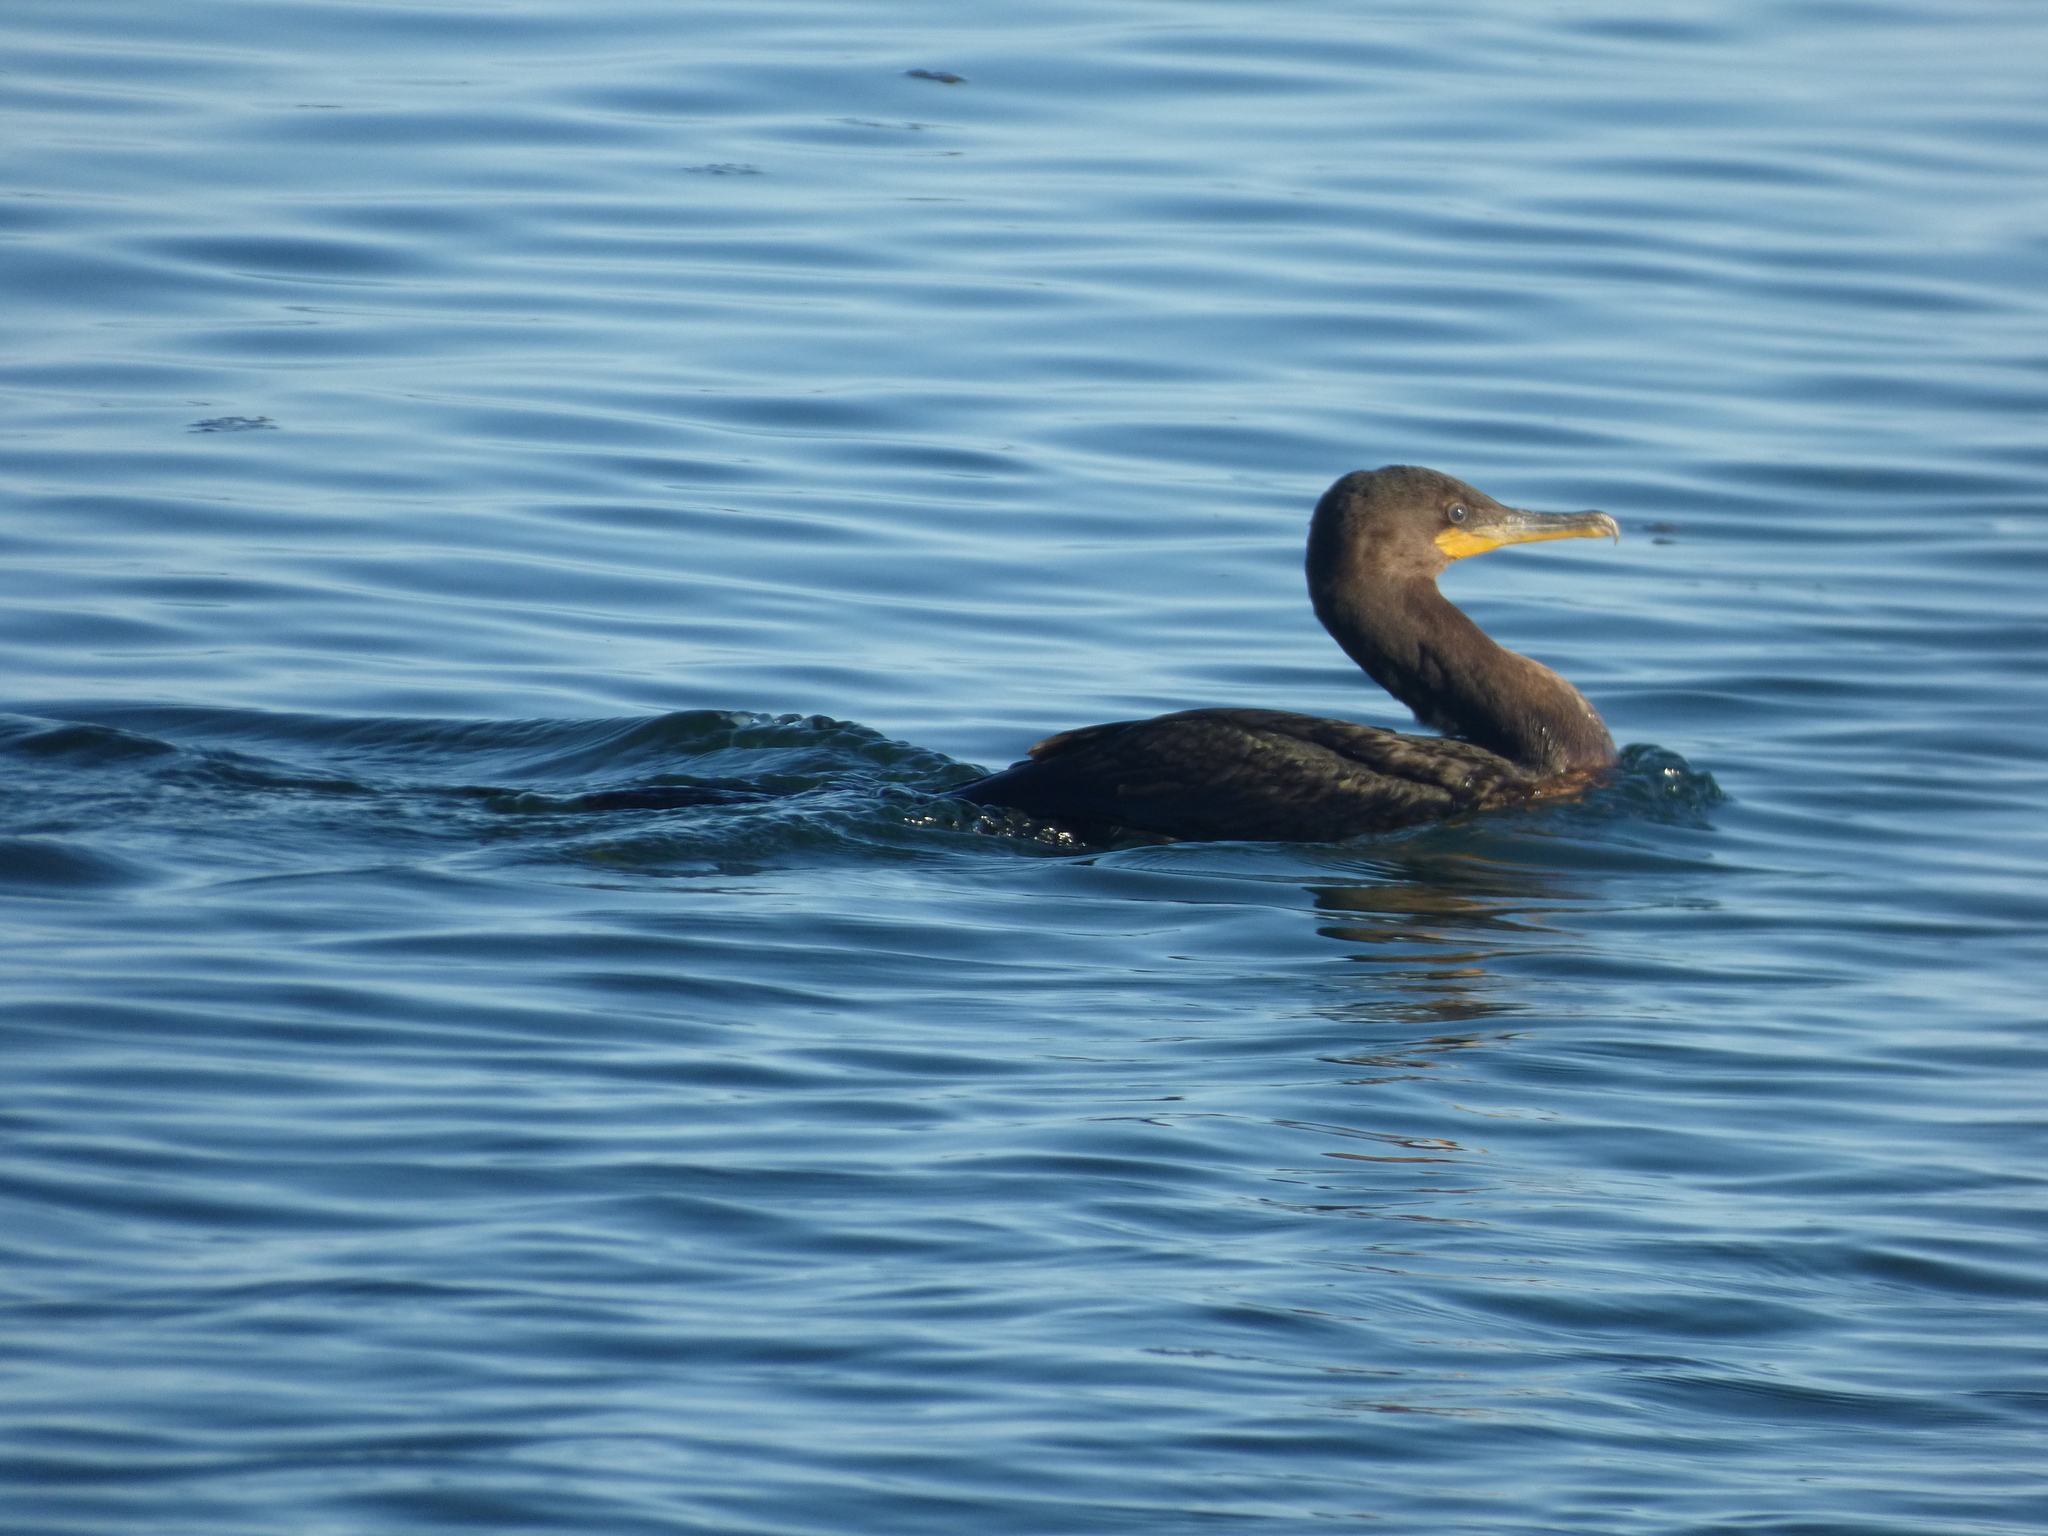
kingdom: Animalia
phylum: Chordata
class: Aves
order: Suliformes
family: Phalacrocoracidae
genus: Phalacrocorax
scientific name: Phalacrocorax auritus
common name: Double-crested cormorant
